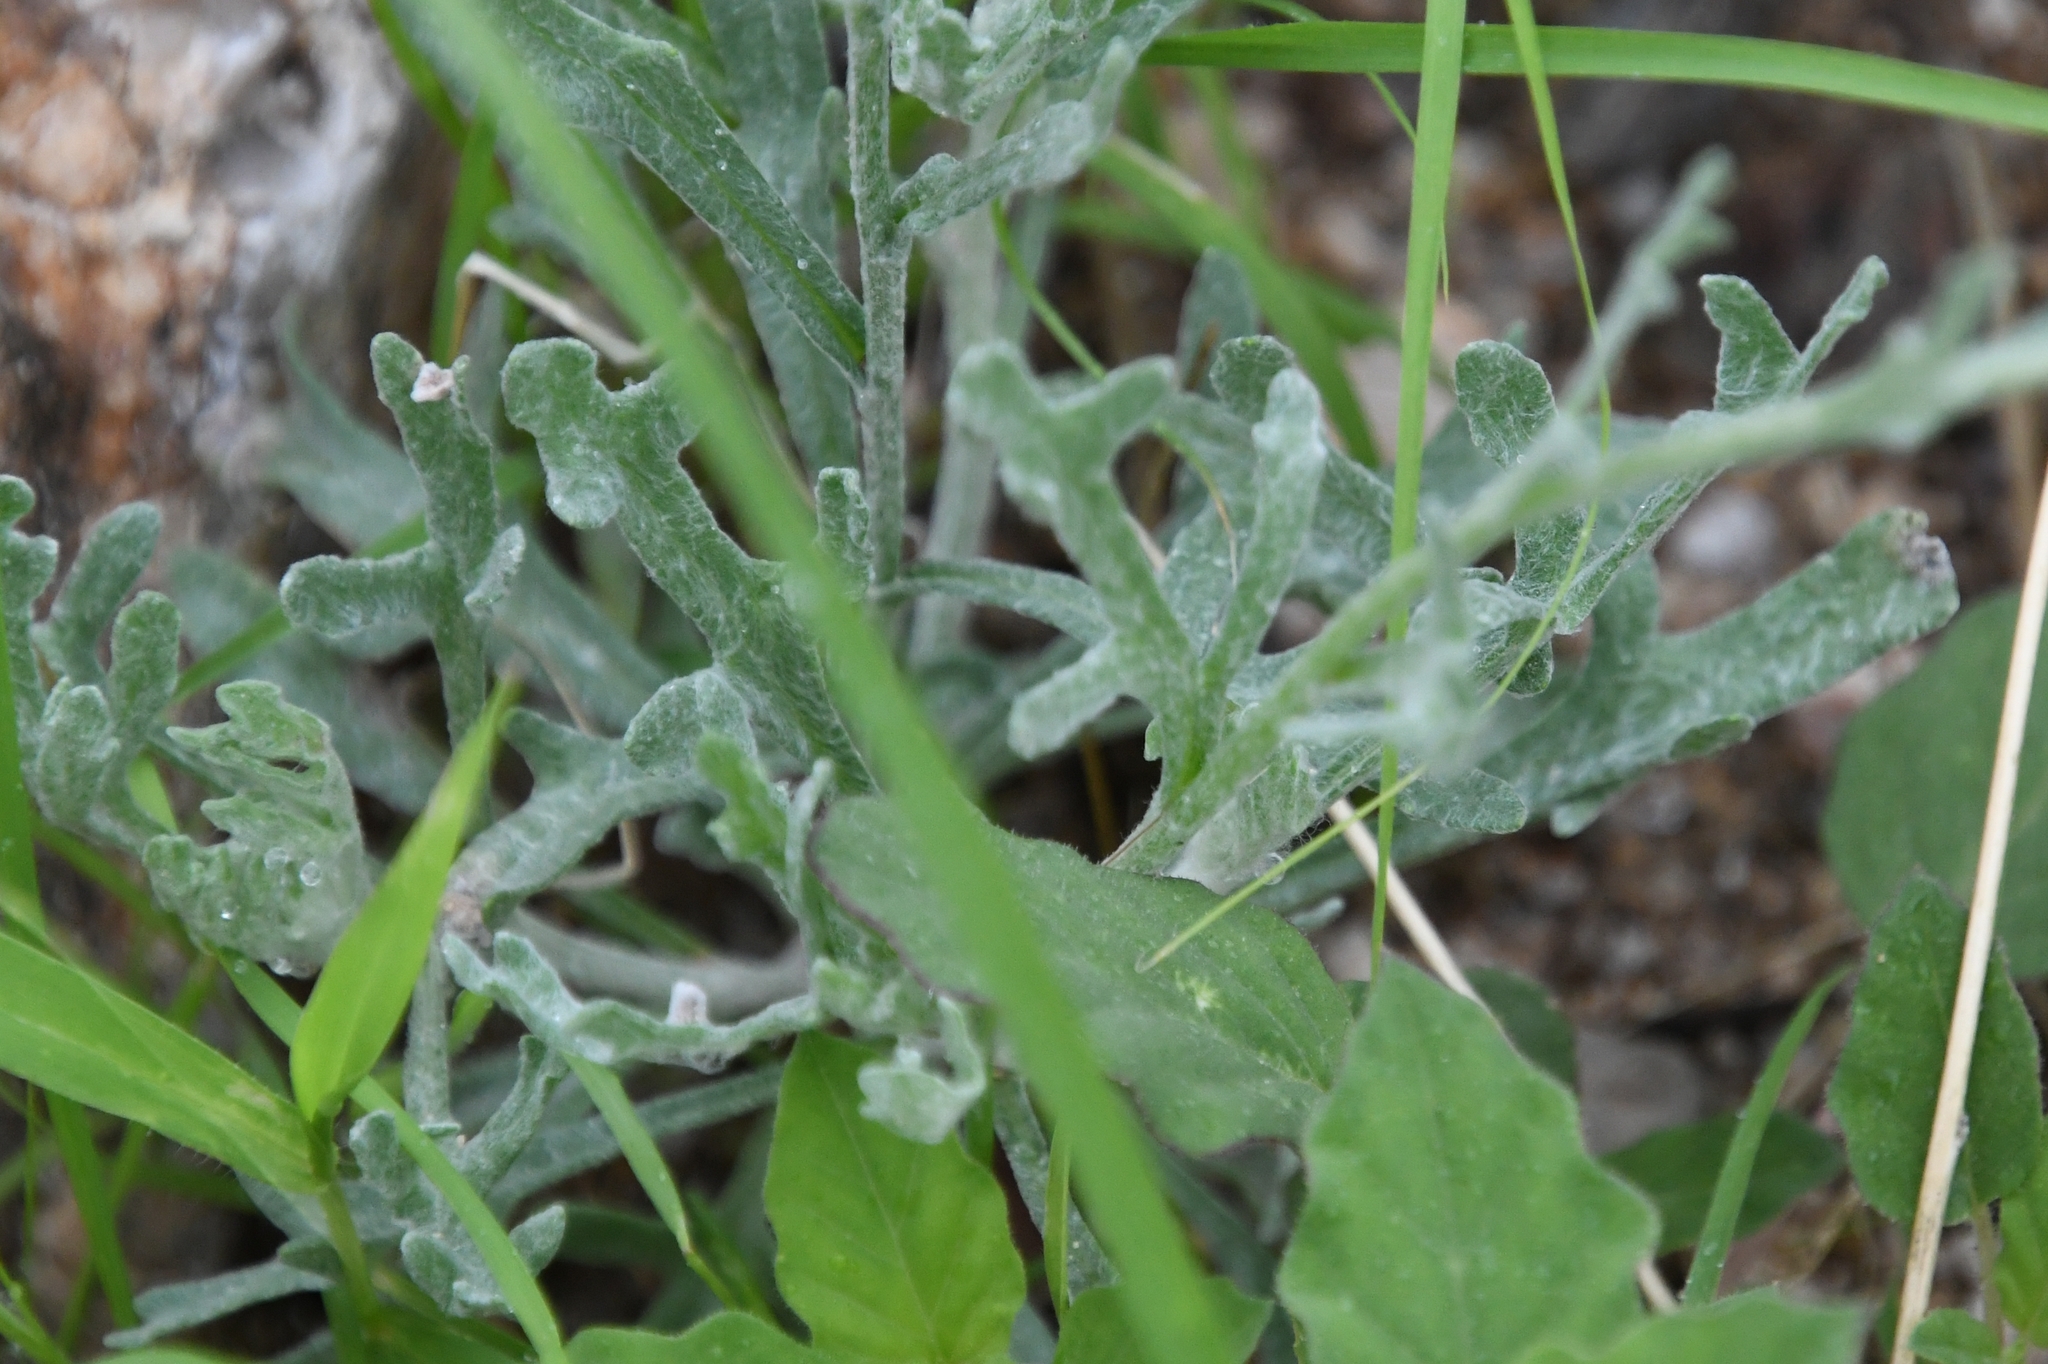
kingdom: Plantae
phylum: Tracheophyta
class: Magnoliopsida
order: Asterales
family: Asteraceae
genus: Baileya
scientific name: Baileya multiradiata
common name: Desert-marigold
